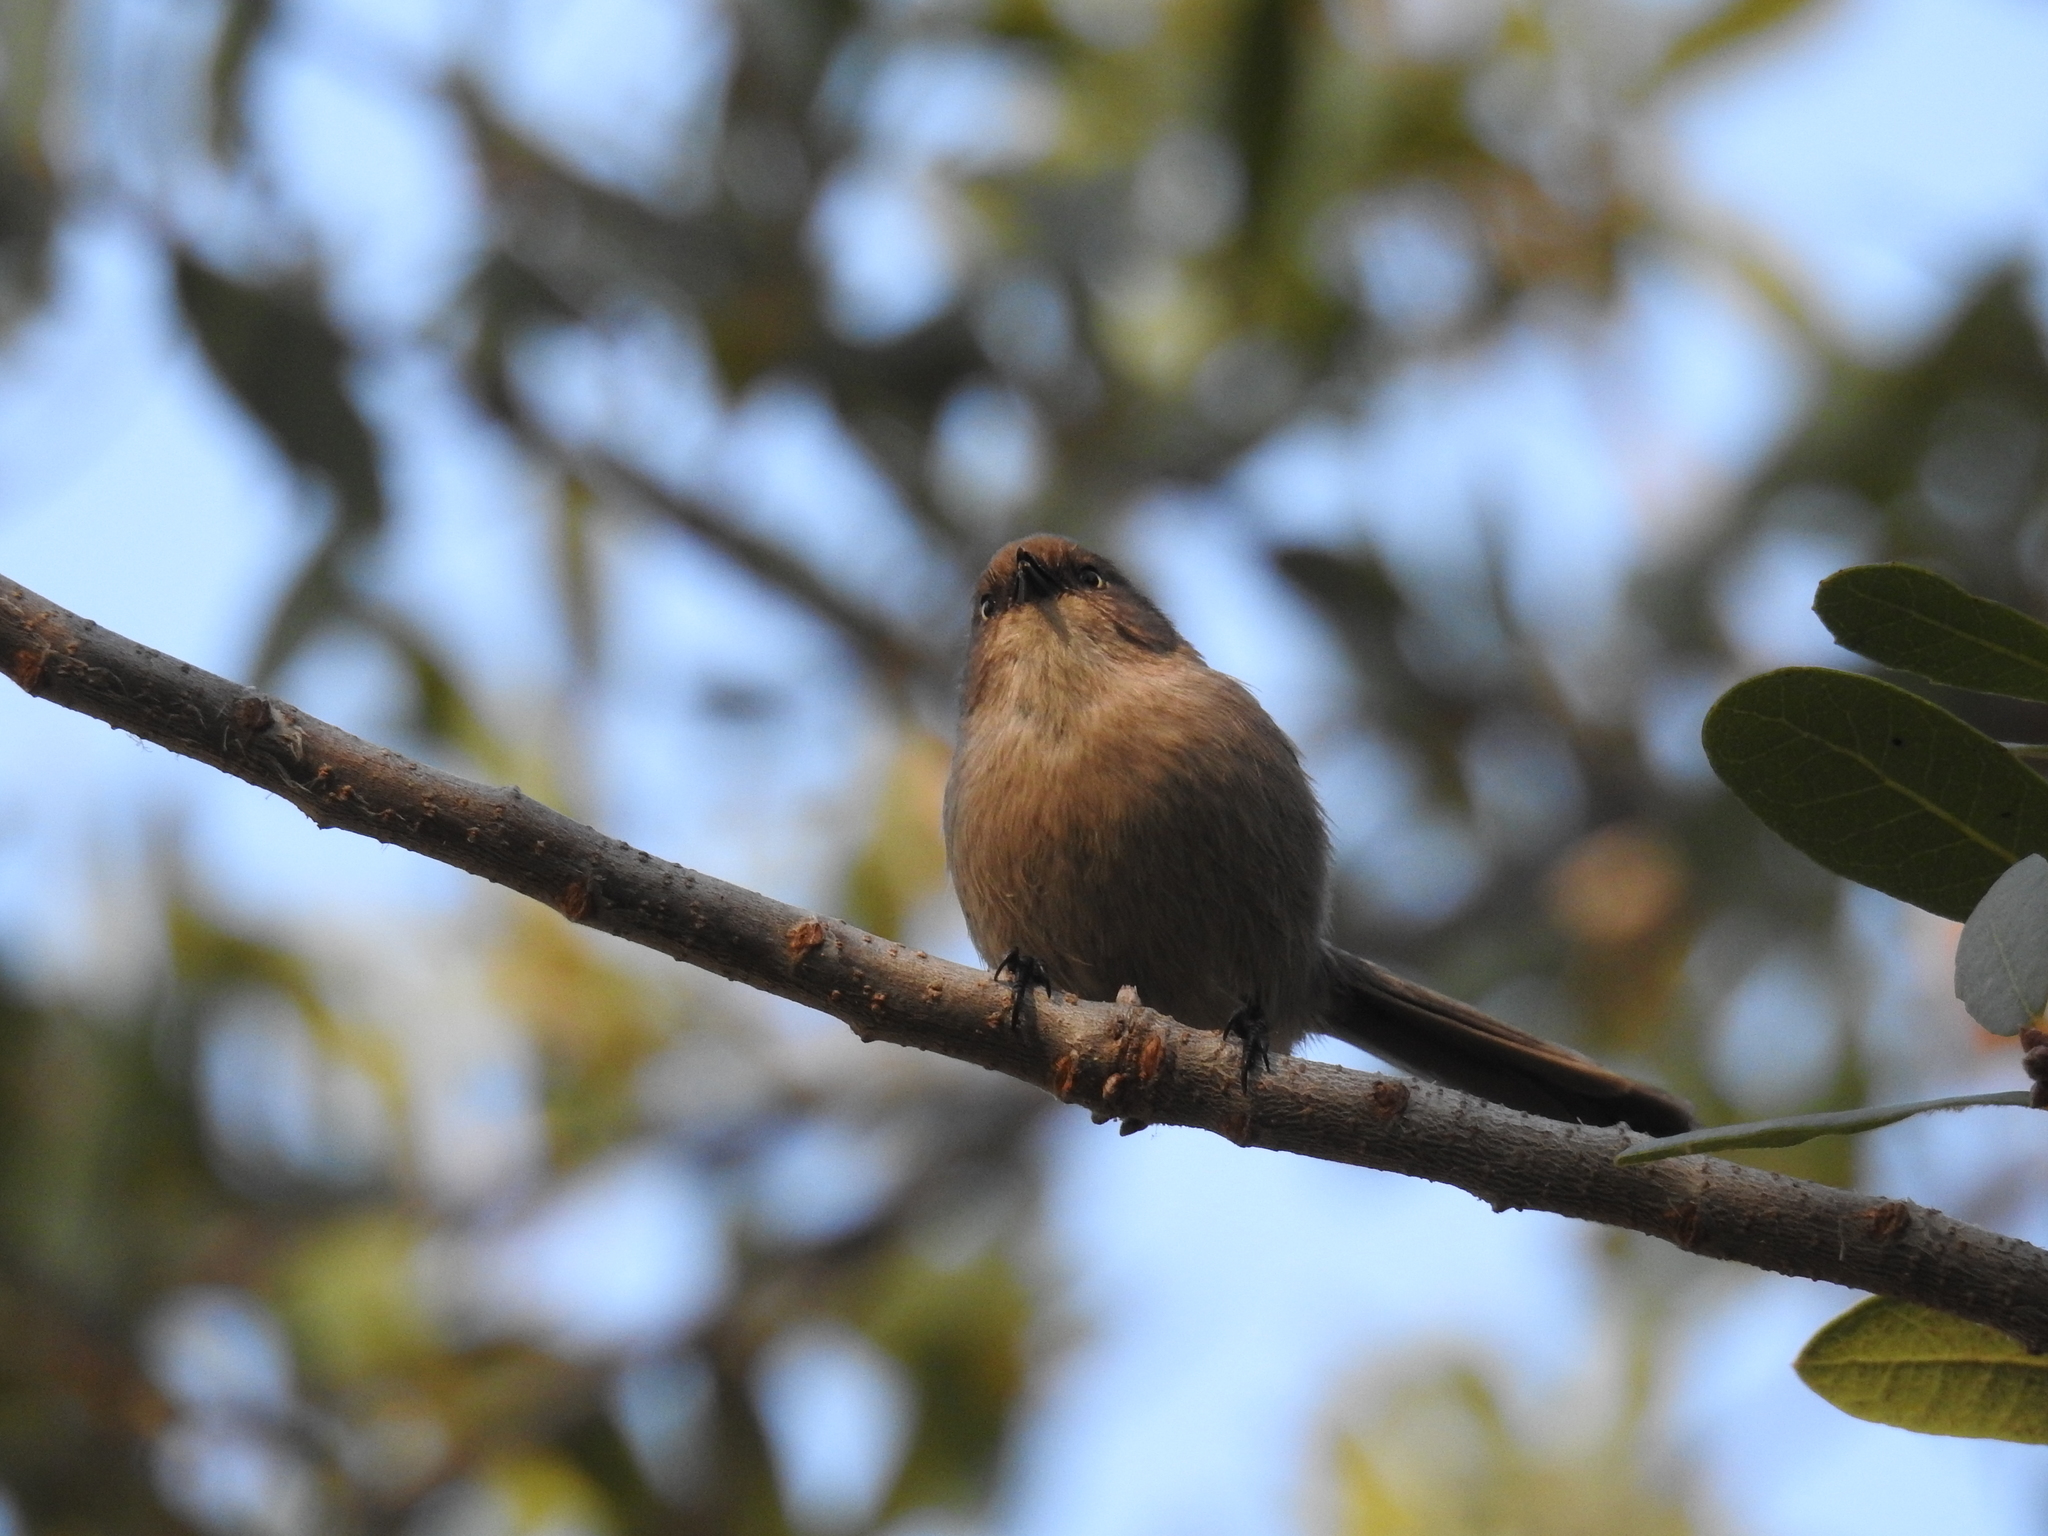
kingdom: Animalia
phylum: Chordata
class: Aves
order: Passeriformes
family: Aegithalidae
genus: Psaltriparus
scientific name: Psaltriparus minimus
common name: American bushtit
